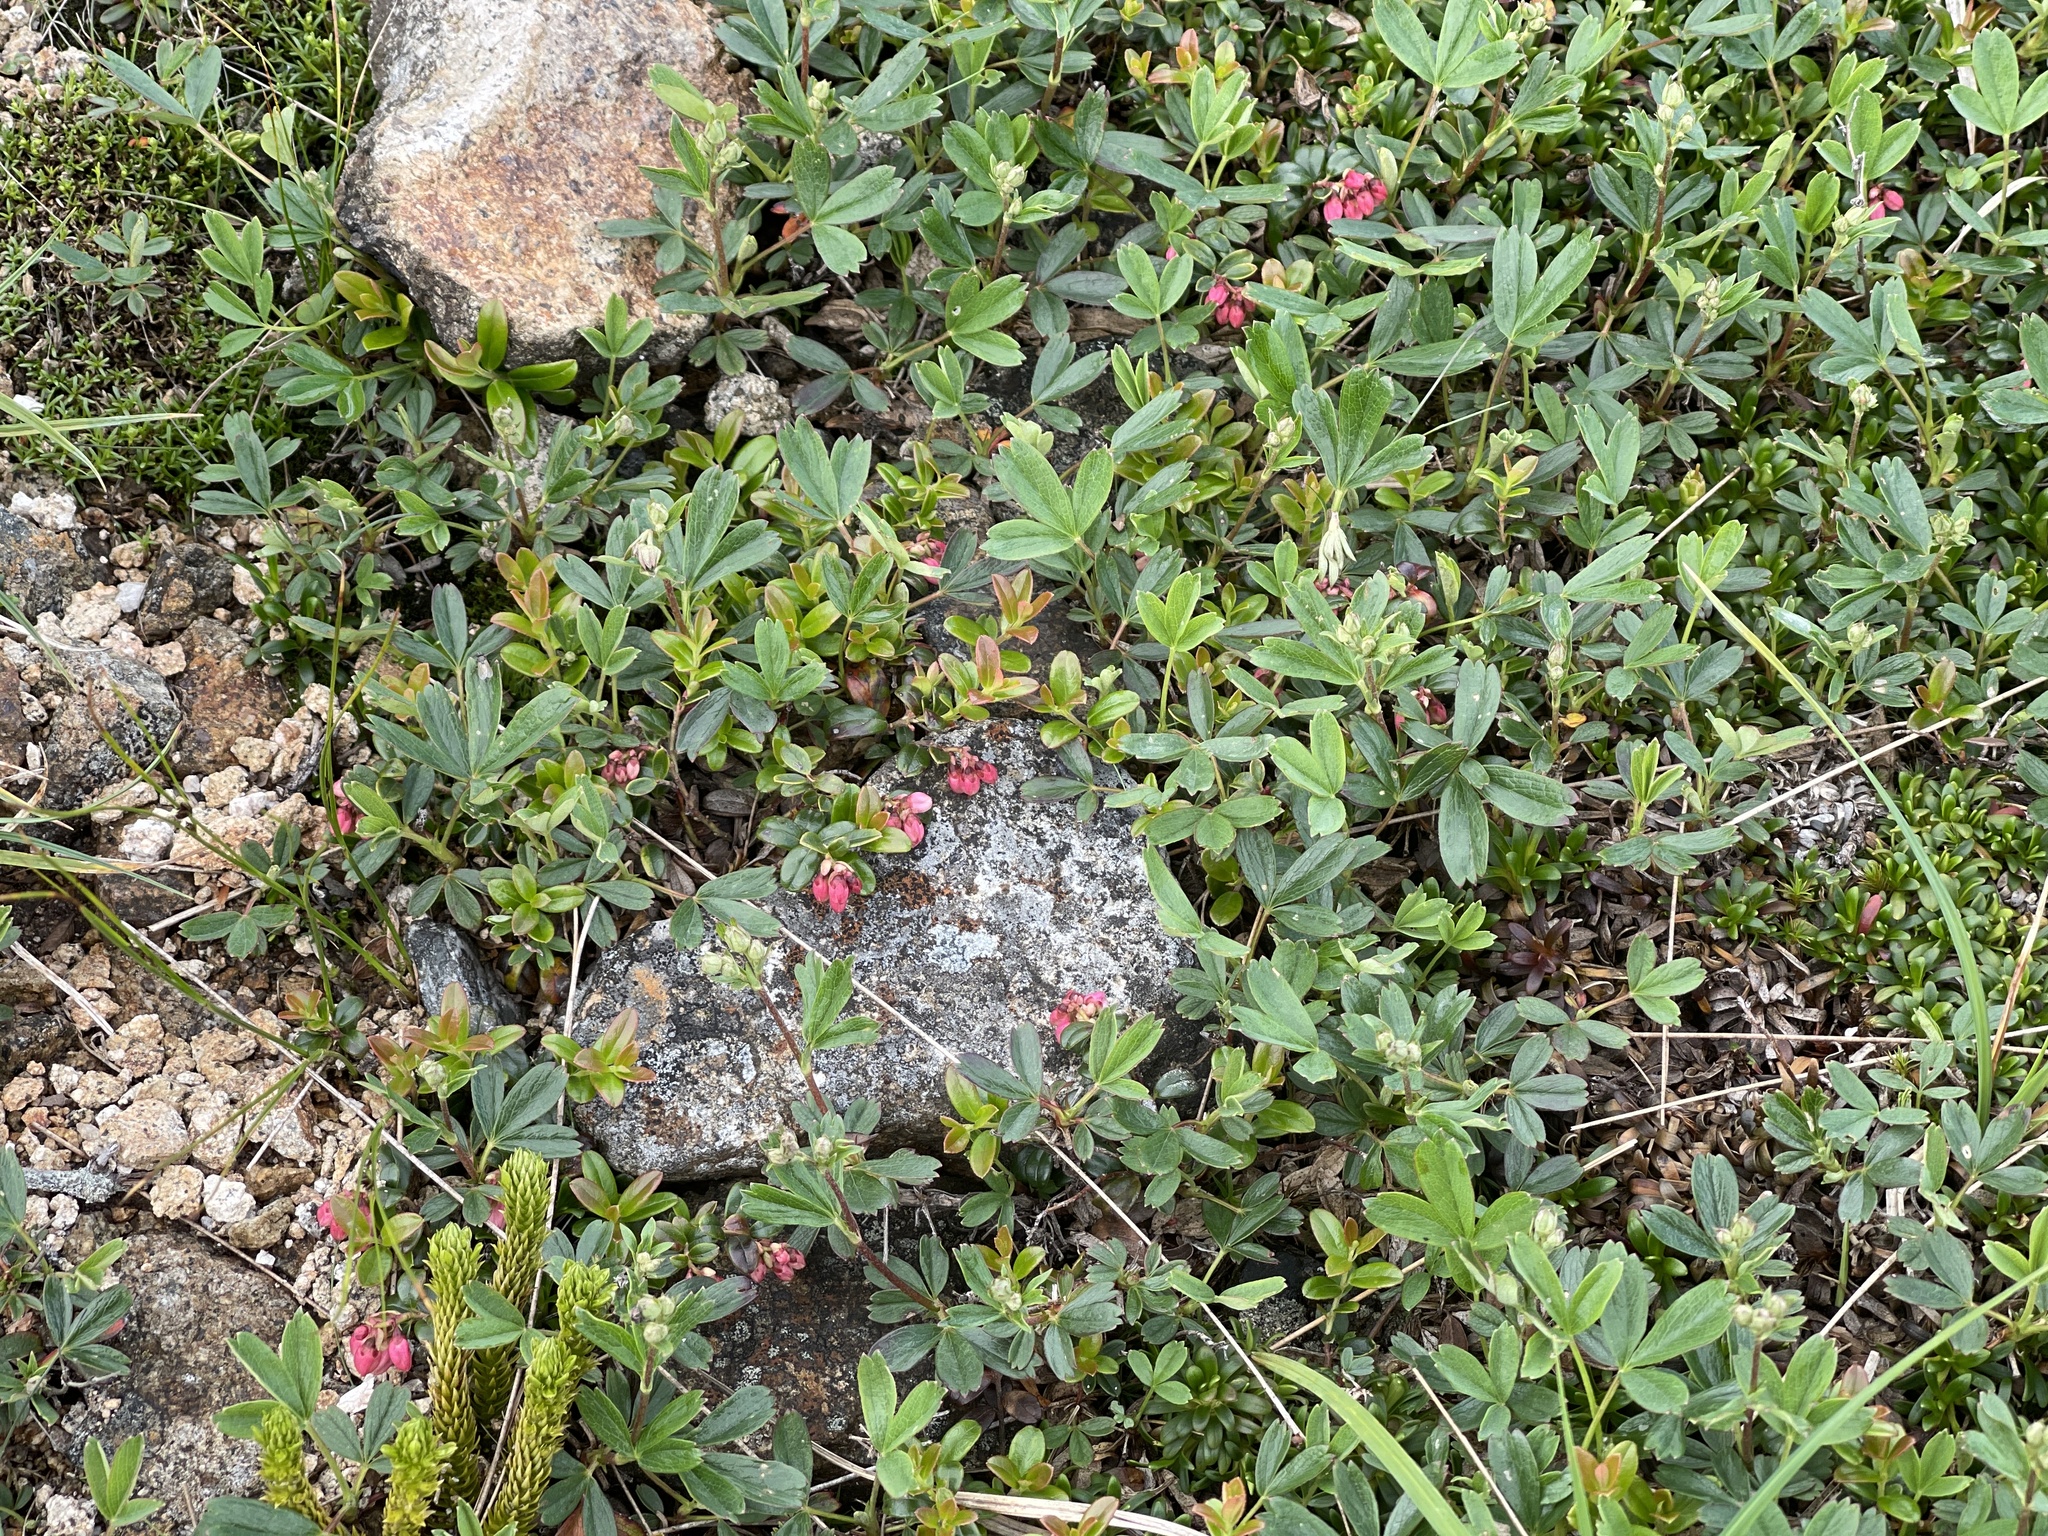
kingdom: Plantae
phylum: Tracheophyta
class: Magnoliopsida
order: Ericales
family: Ericaceae
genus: Vaccinium
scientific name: Vaccinium vitis-idaea
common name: Cowberry
